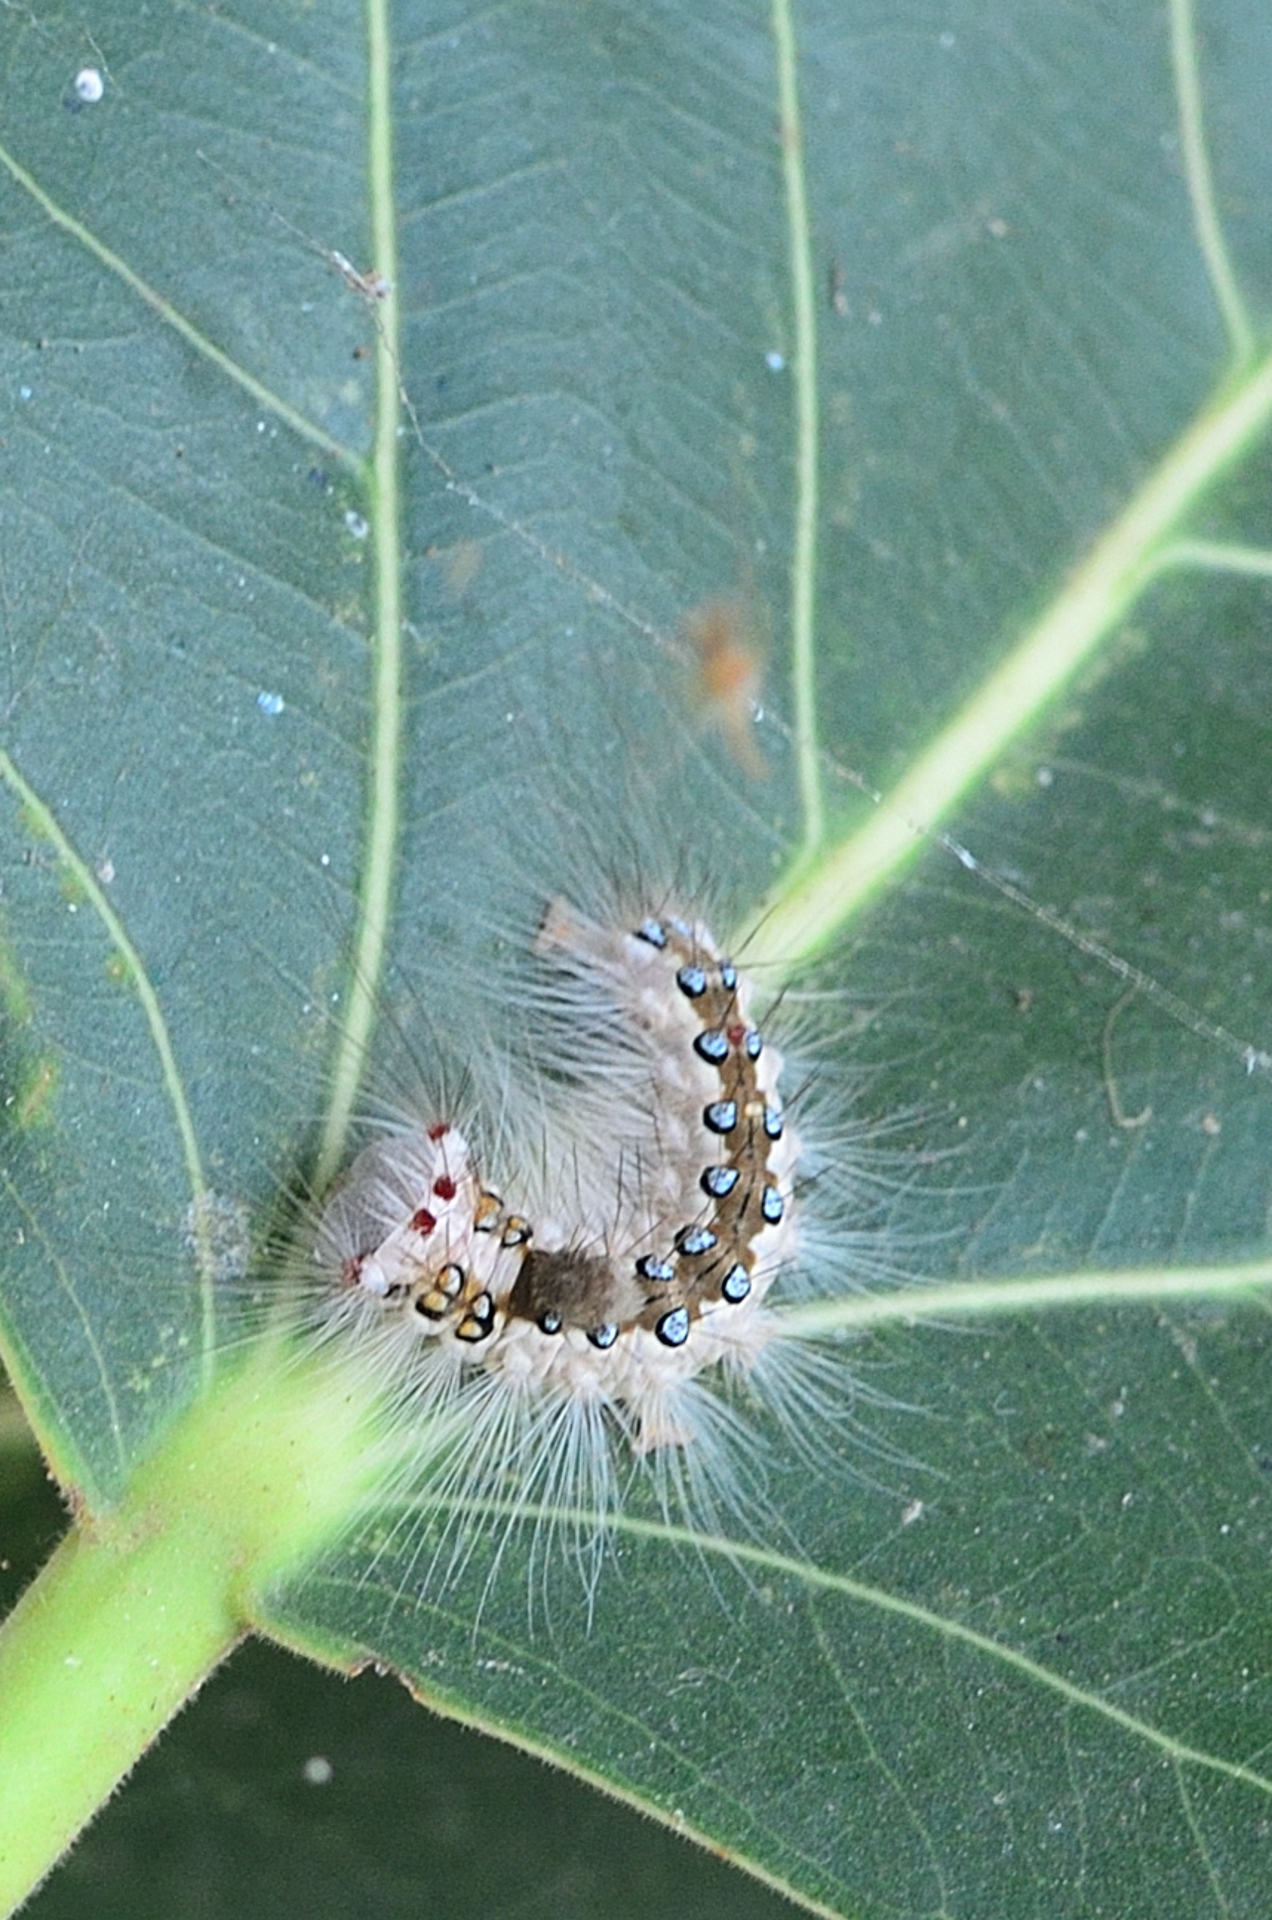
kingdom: Animalia
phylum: Arthropoda
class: Insecta
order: Lepidoptera
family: Erebidae
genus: Perina
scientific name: Perina nuda
